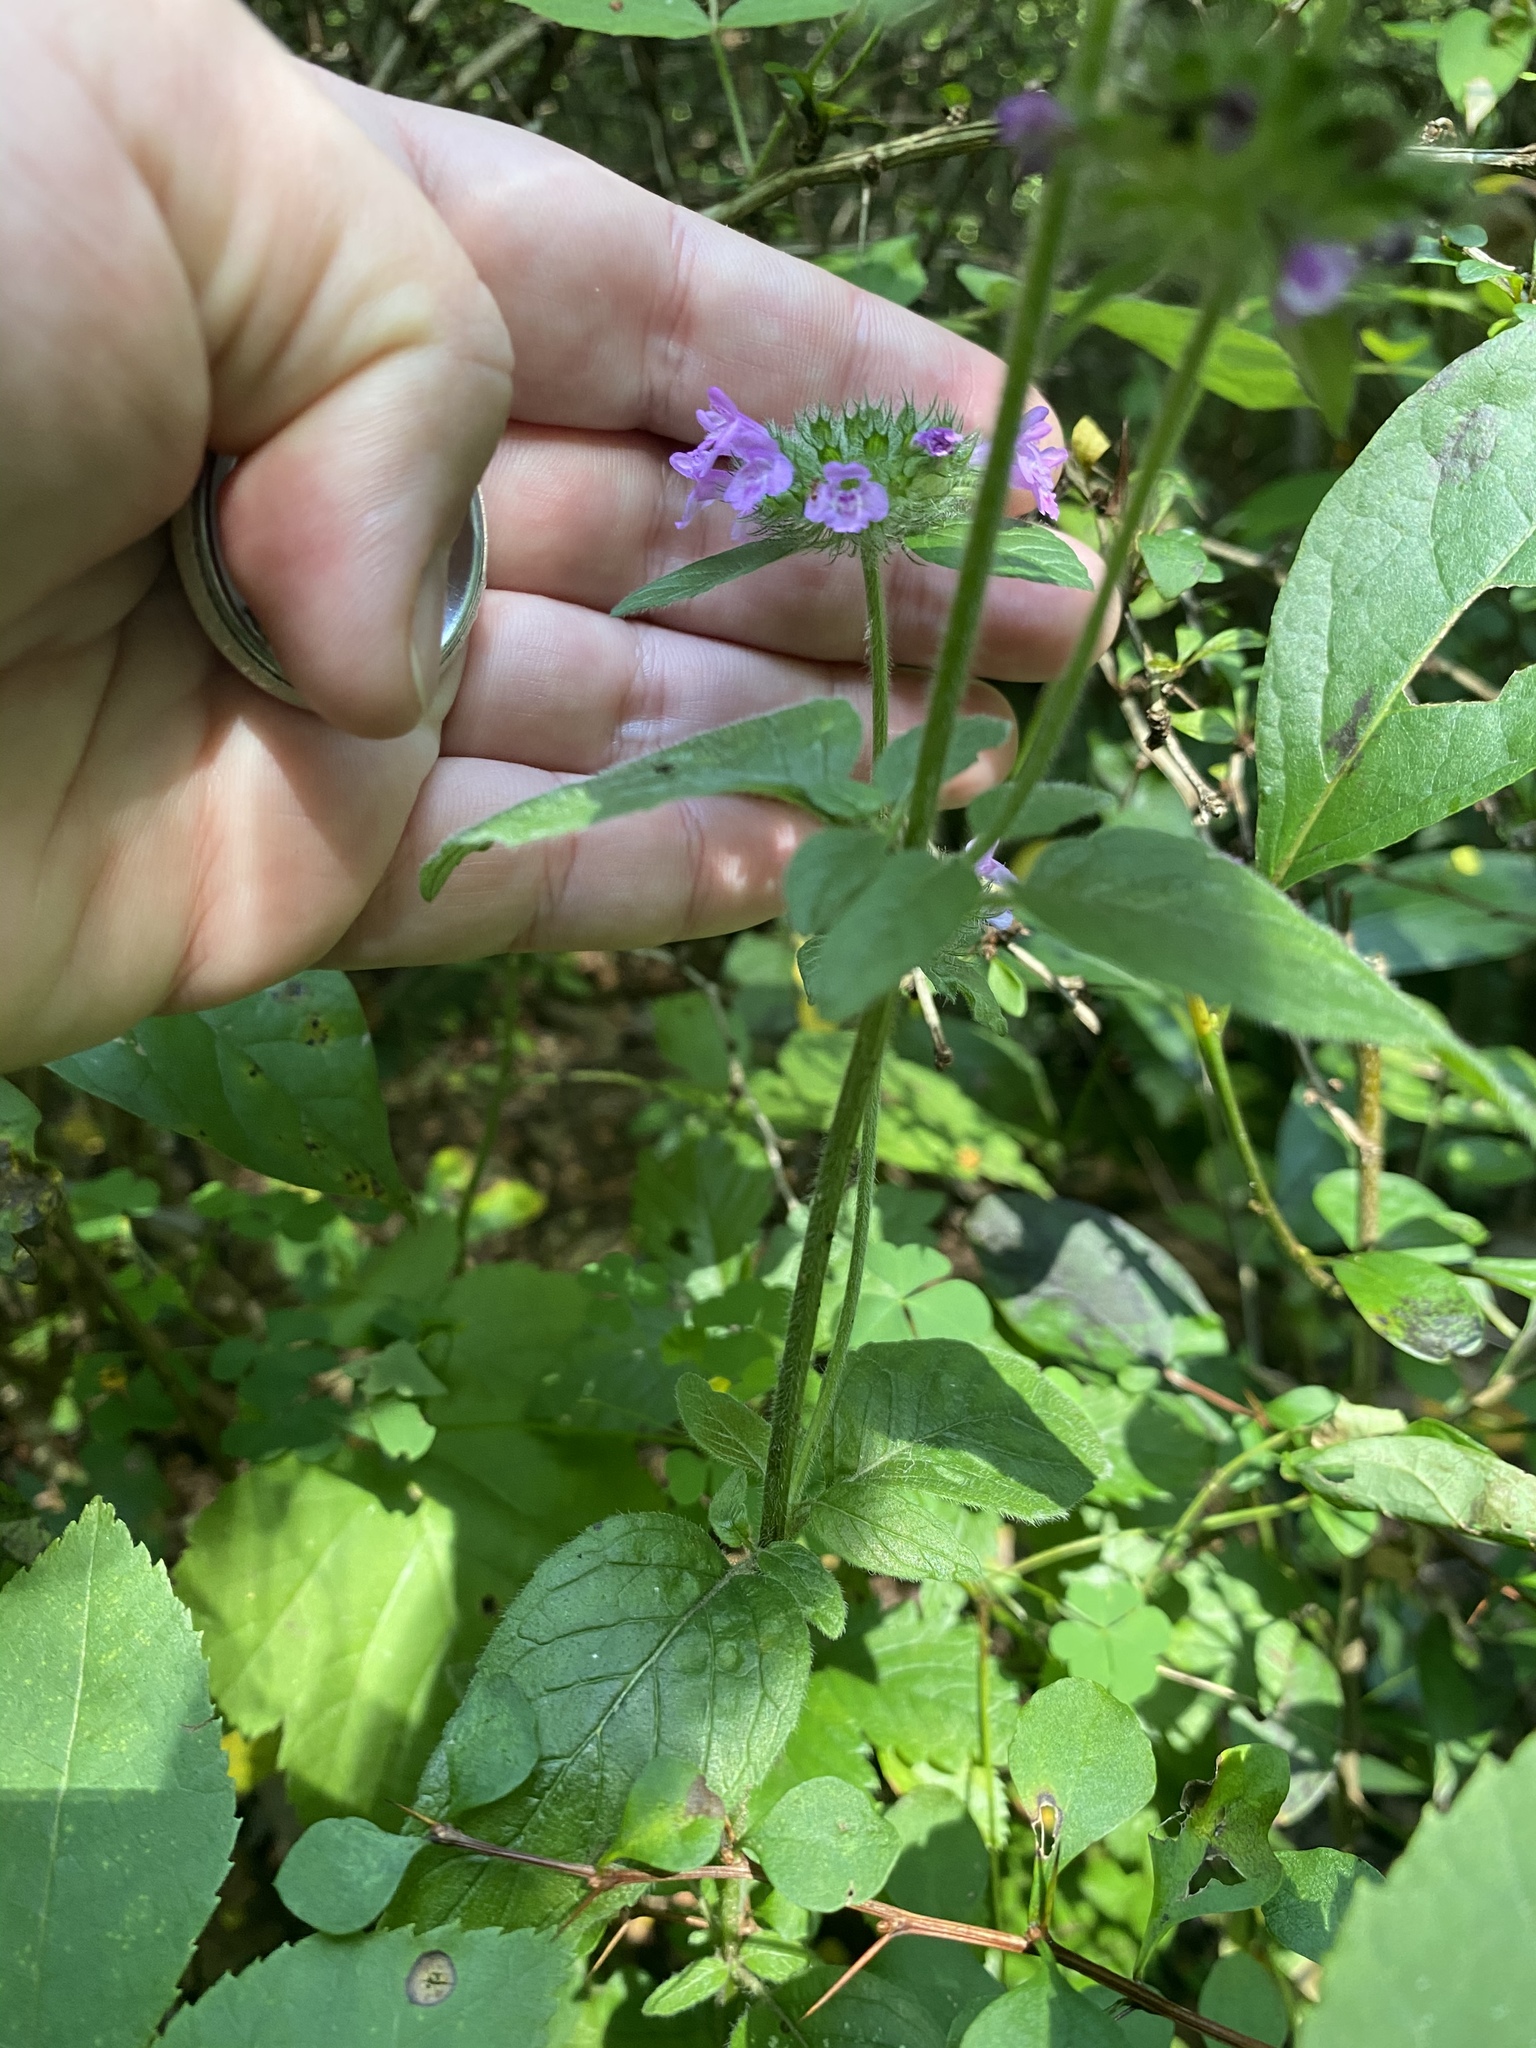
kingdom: Plantae
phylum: Tracheophyta
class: Magnoliopsida
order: Lamiales
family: Lamiaceae
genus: Clinopodium
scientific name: Clinopodium vulgare
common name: Wild basil
